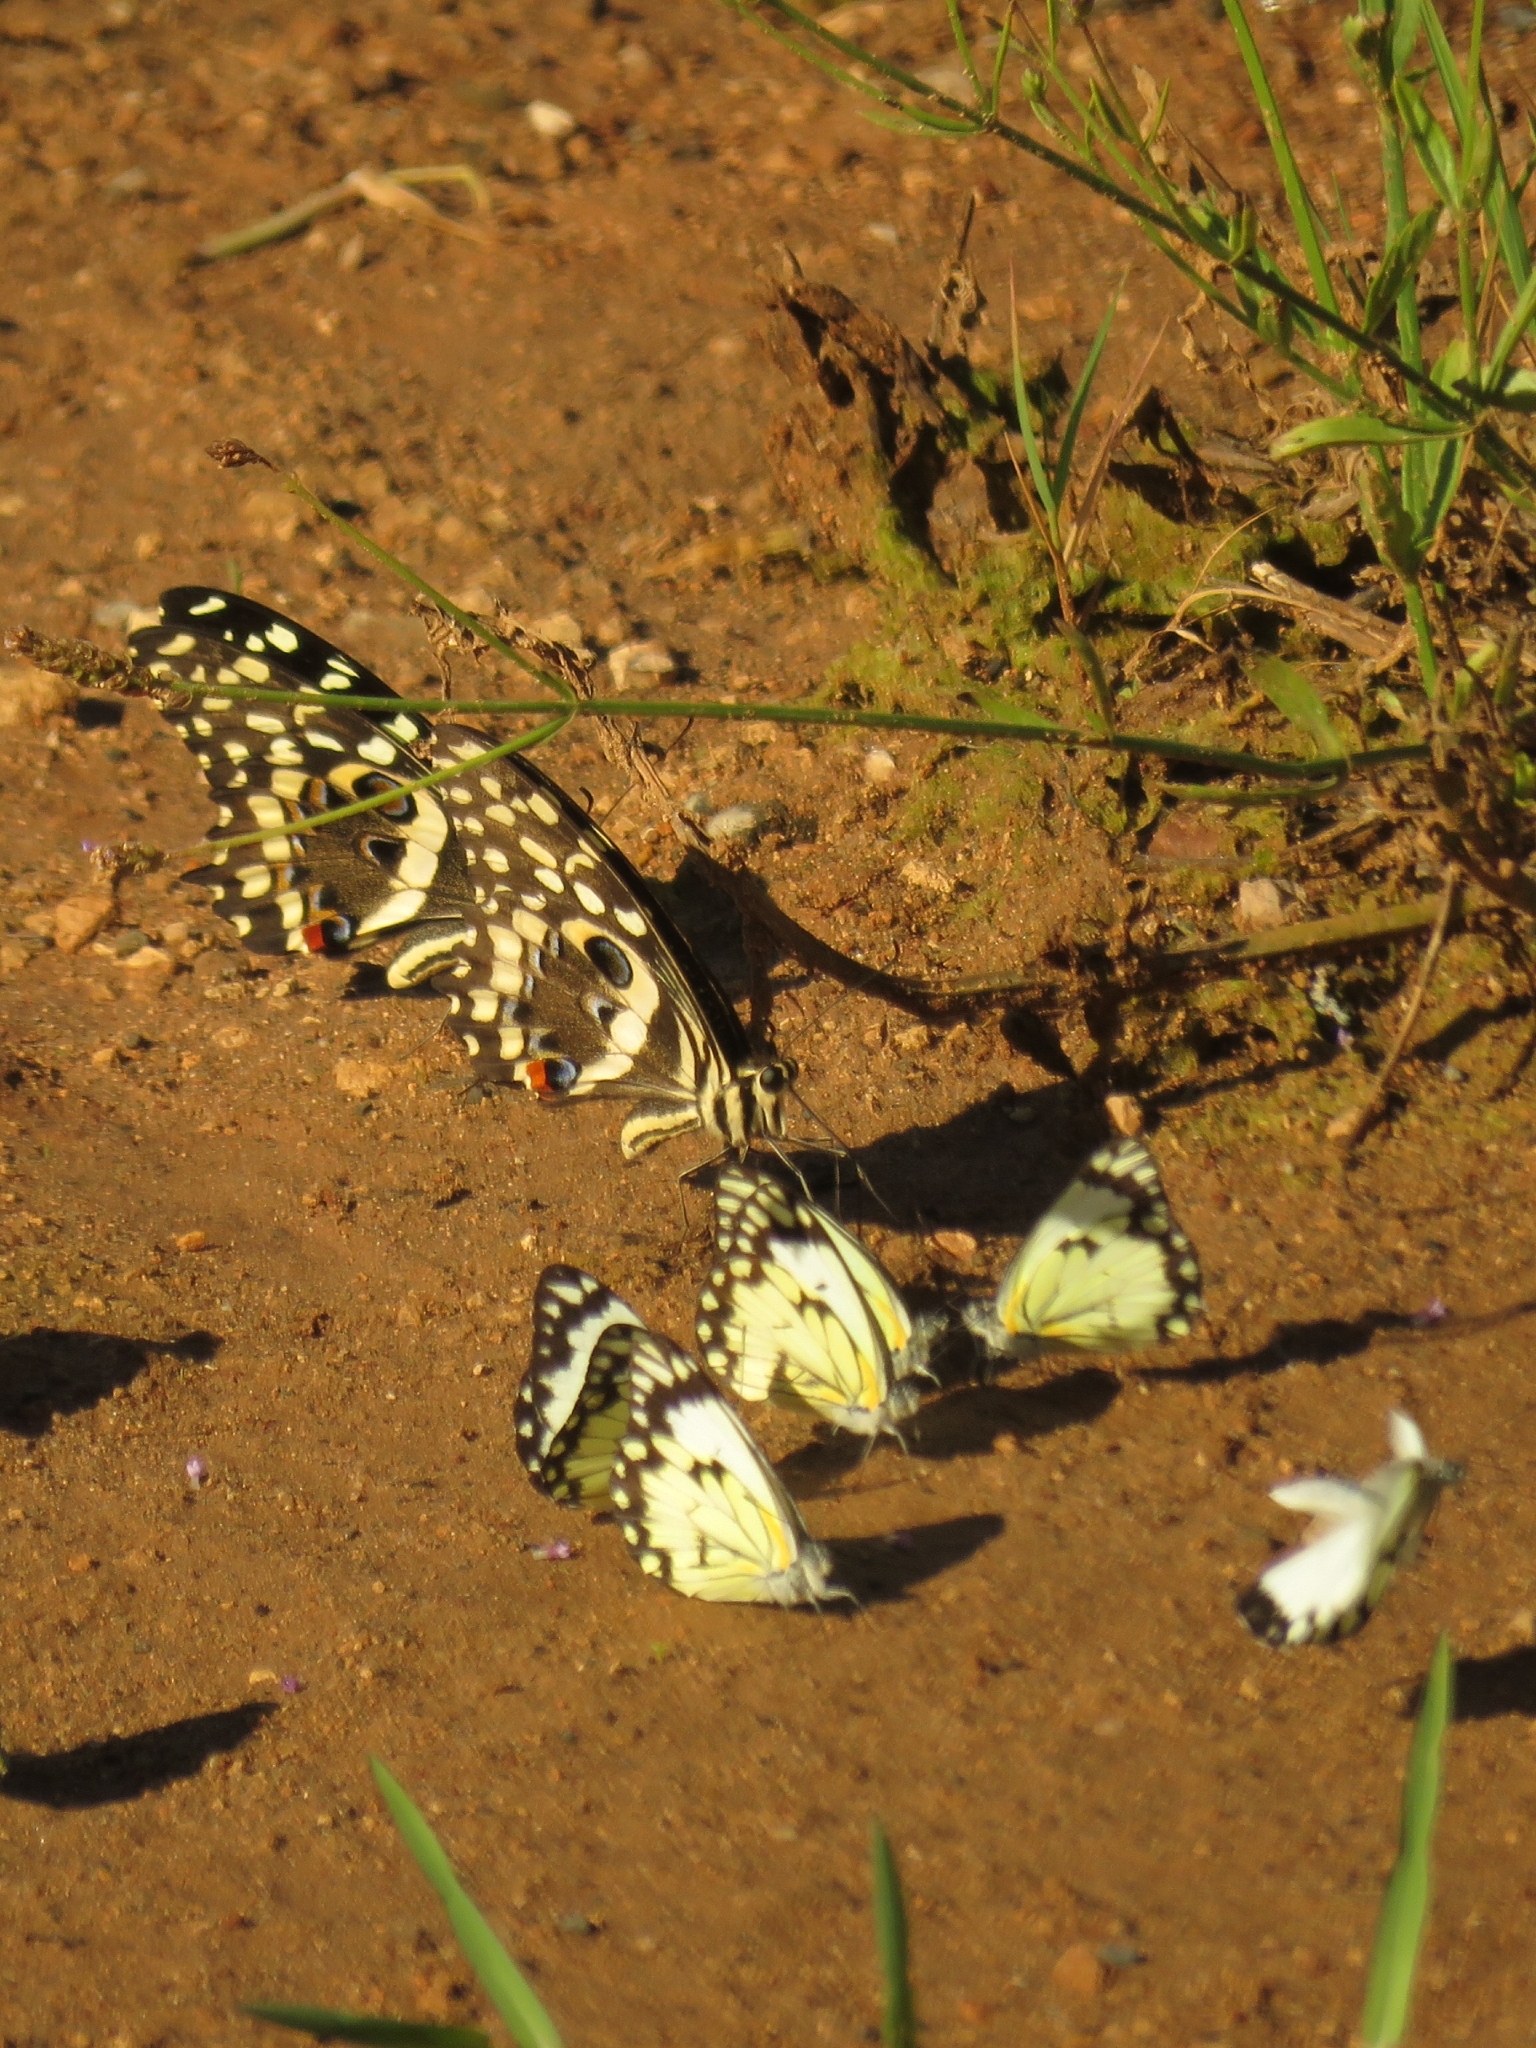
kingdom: Animalia
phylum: Arthropoda
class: Insecta
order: Lepidoptera
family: Papilionidae
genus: Papilio
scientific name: Papilio demodocus
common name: Christmas butterfly
